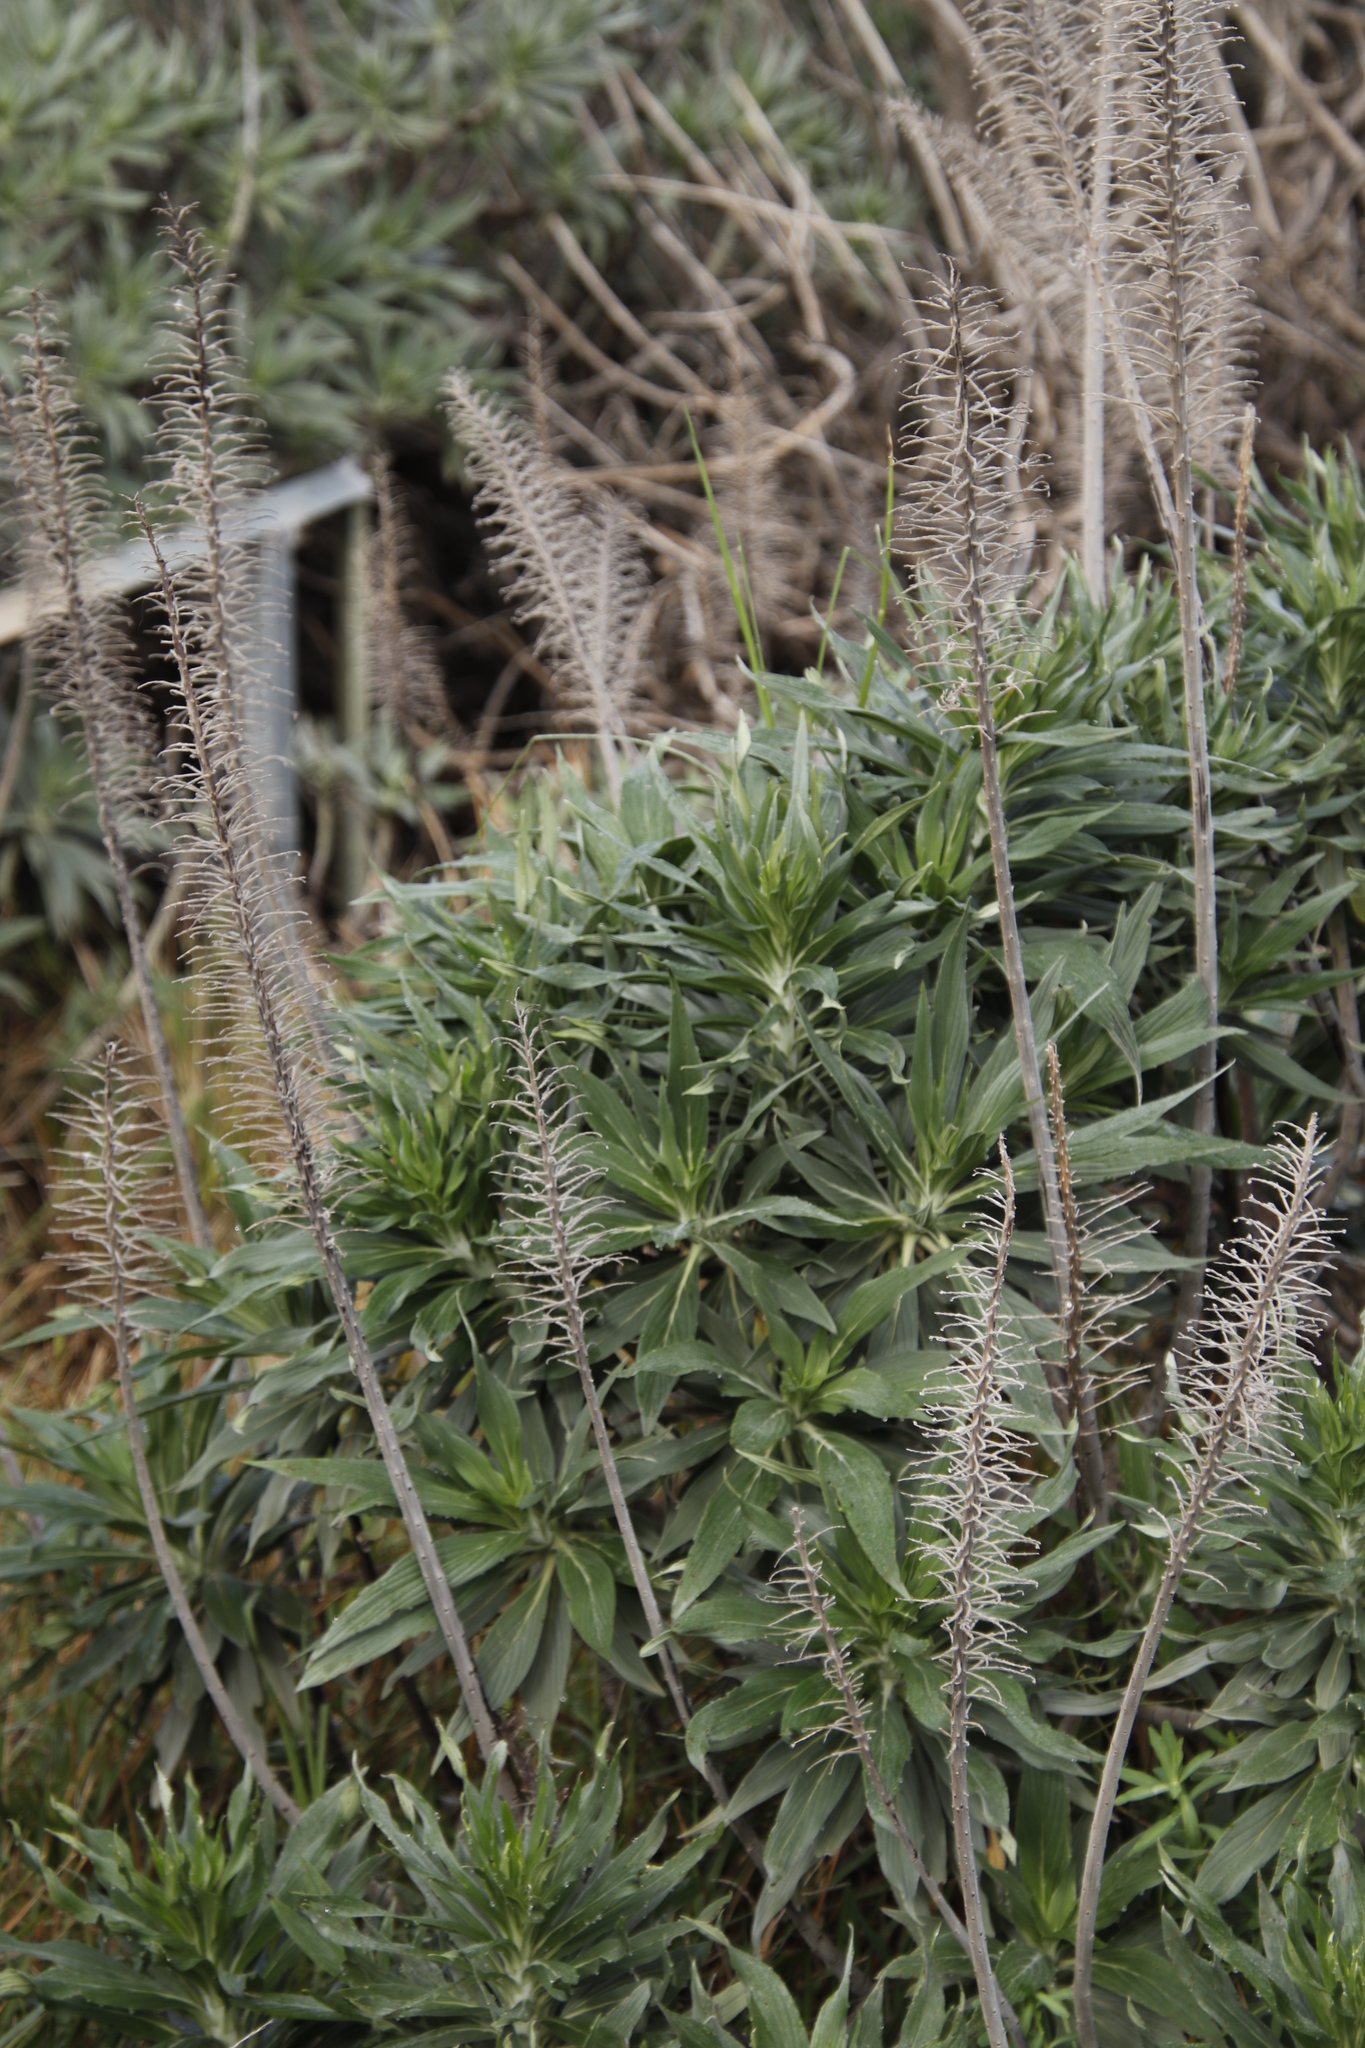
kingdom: Plantae
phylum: Tracheophyta
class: Magnoliopsida
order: Boraginales
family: Boraginaceae
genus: Echium
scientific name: Echium candicans
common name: Pride of madeira
